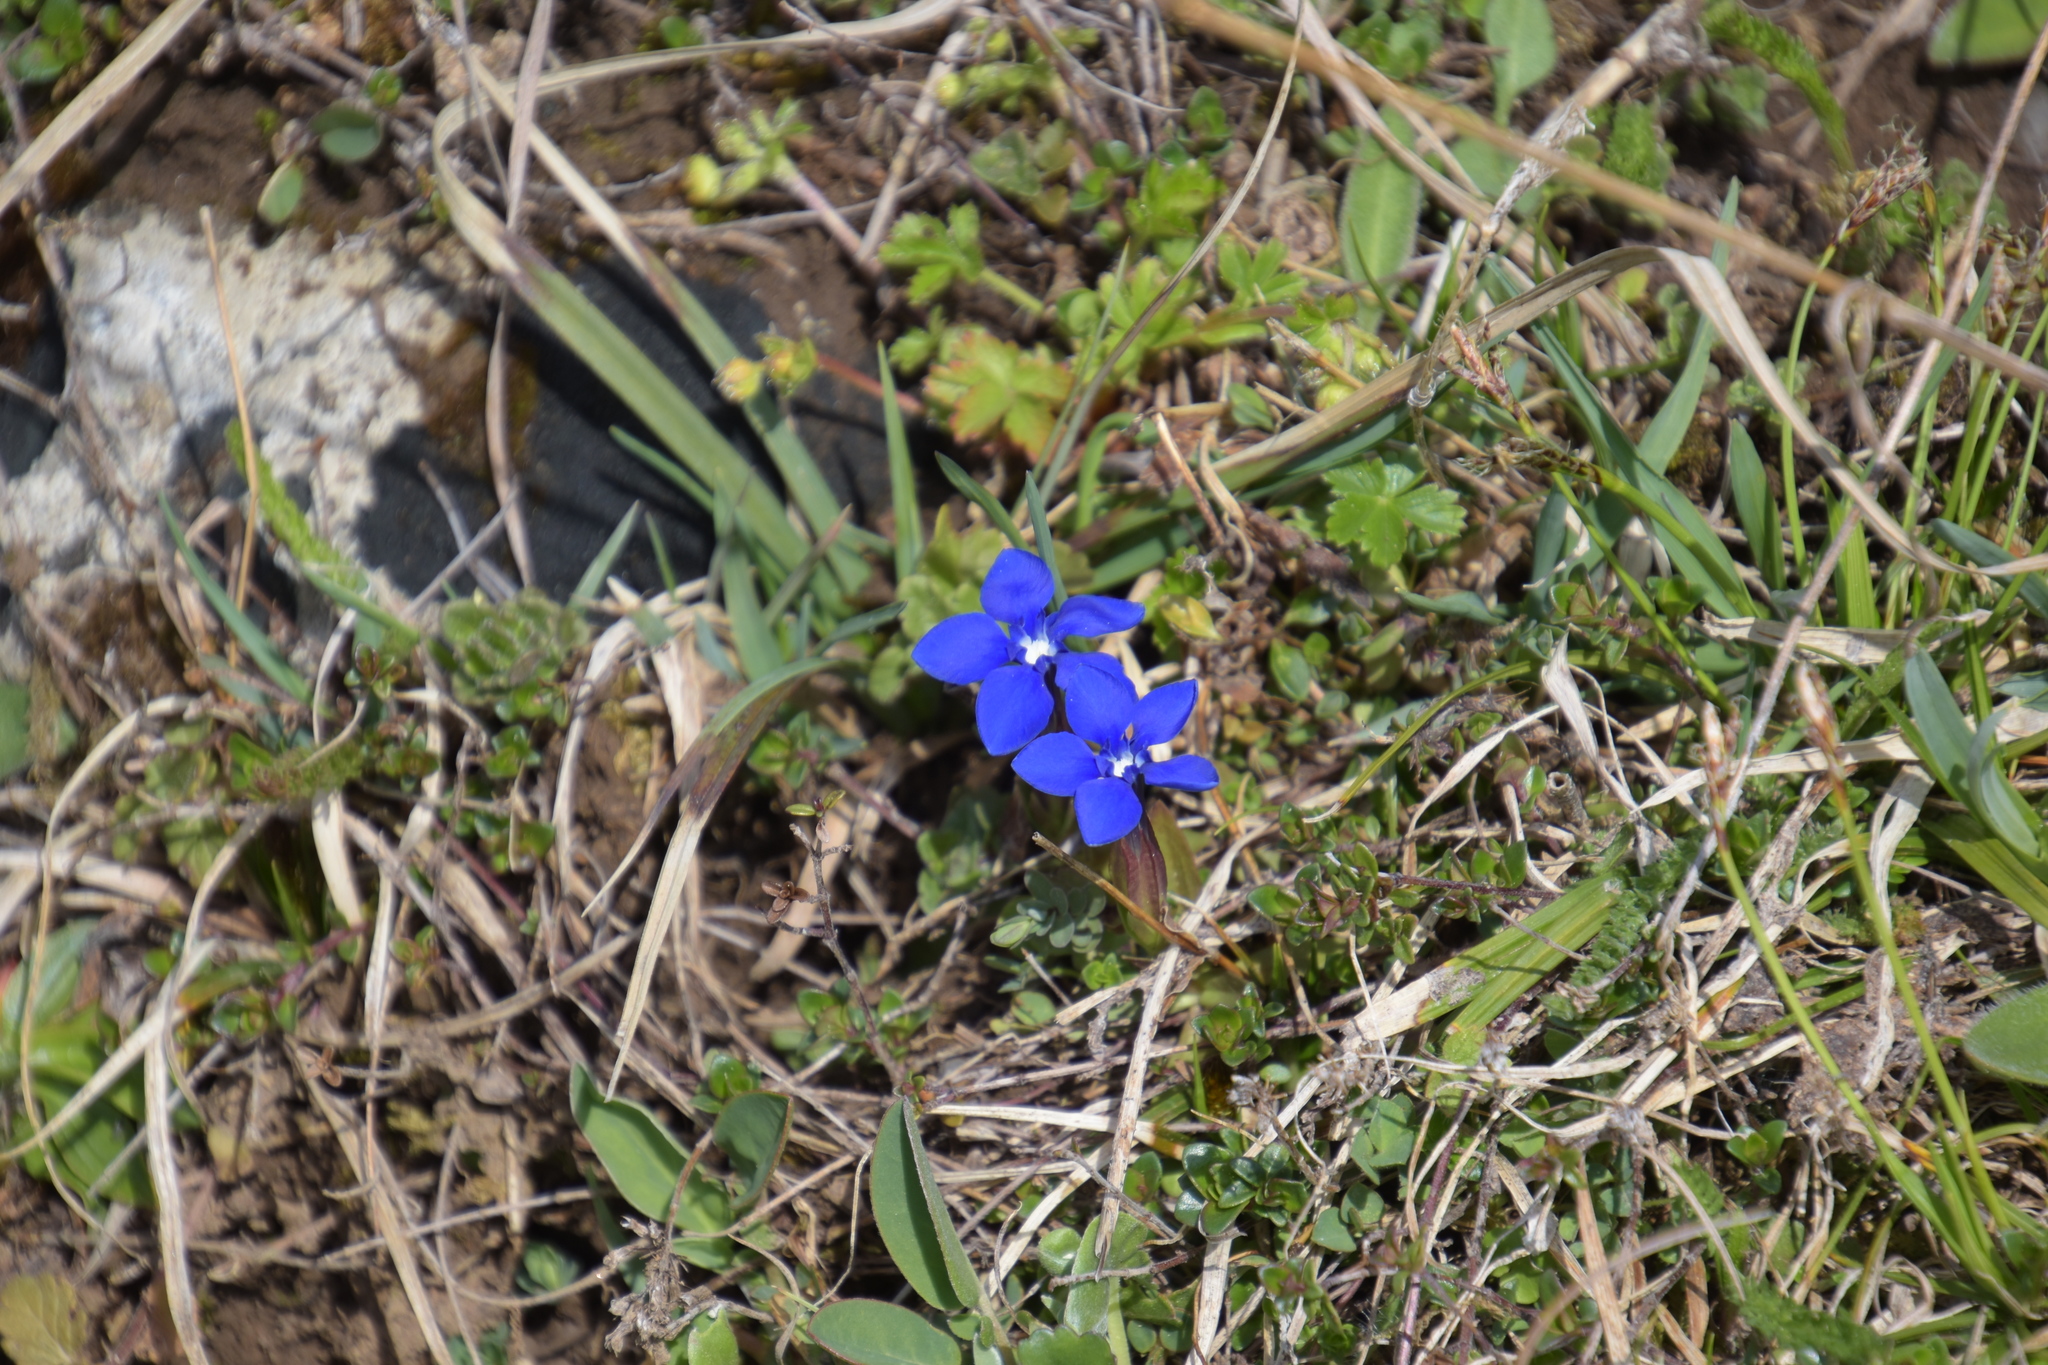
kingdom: Plantae
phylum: Tracheophyta
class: Magnoliopsida
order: Gentianales
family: Gentianaceae
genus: Gentiana
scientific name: Gentiana verna
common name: Spring gentian
